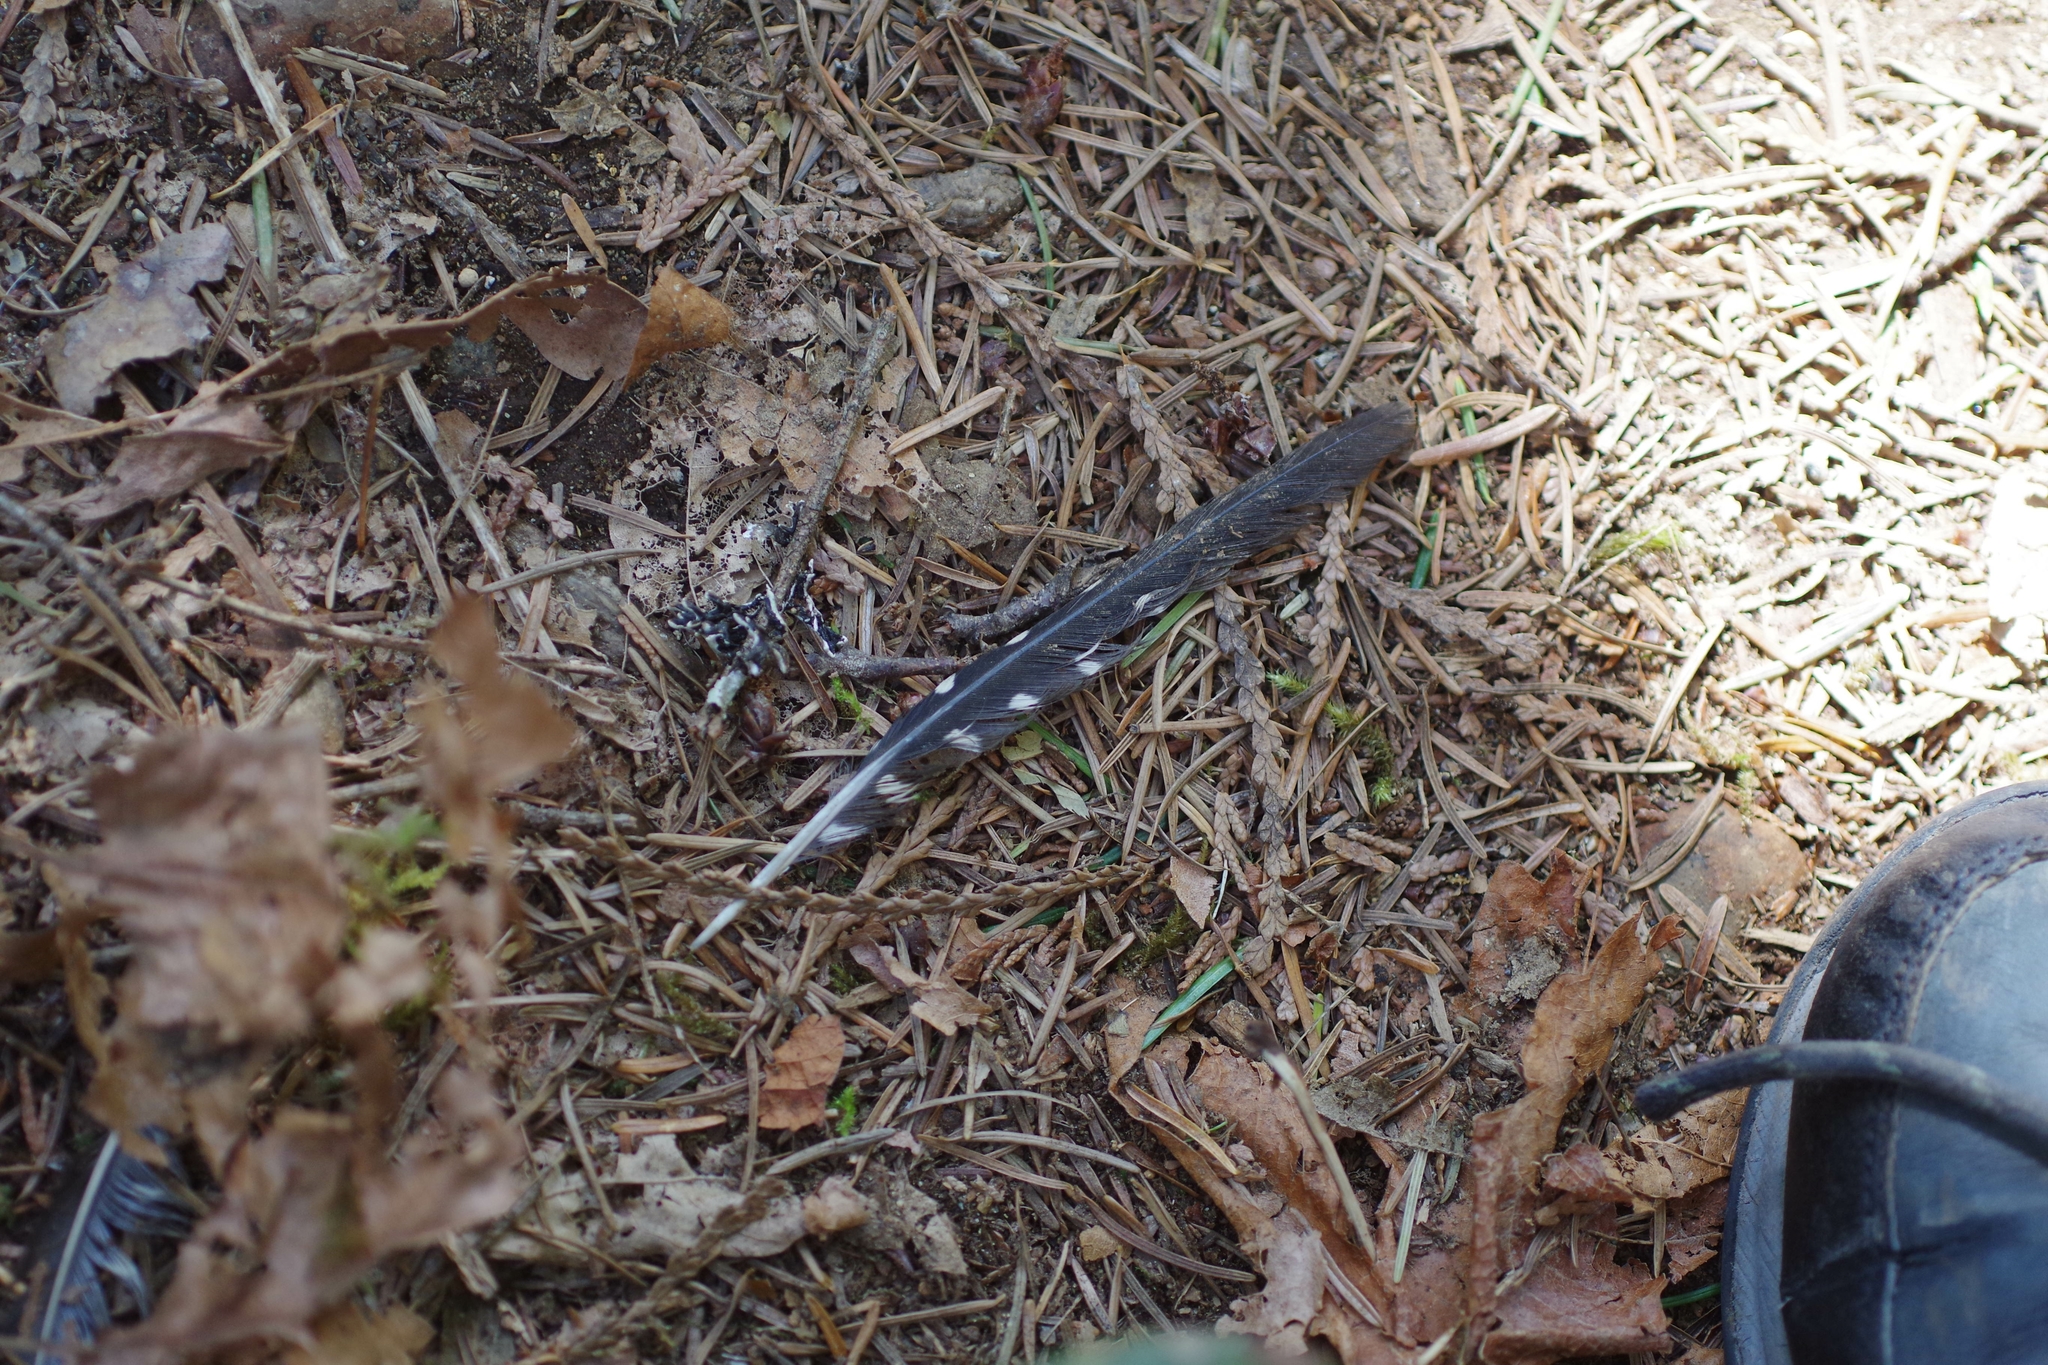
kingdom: Animalia
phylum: Chordata
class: Aves
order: Piciformes
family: Picidae
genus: Sphyrapicus
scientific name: Sphyrapicus ruber
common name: Red-breasted sapsucker
